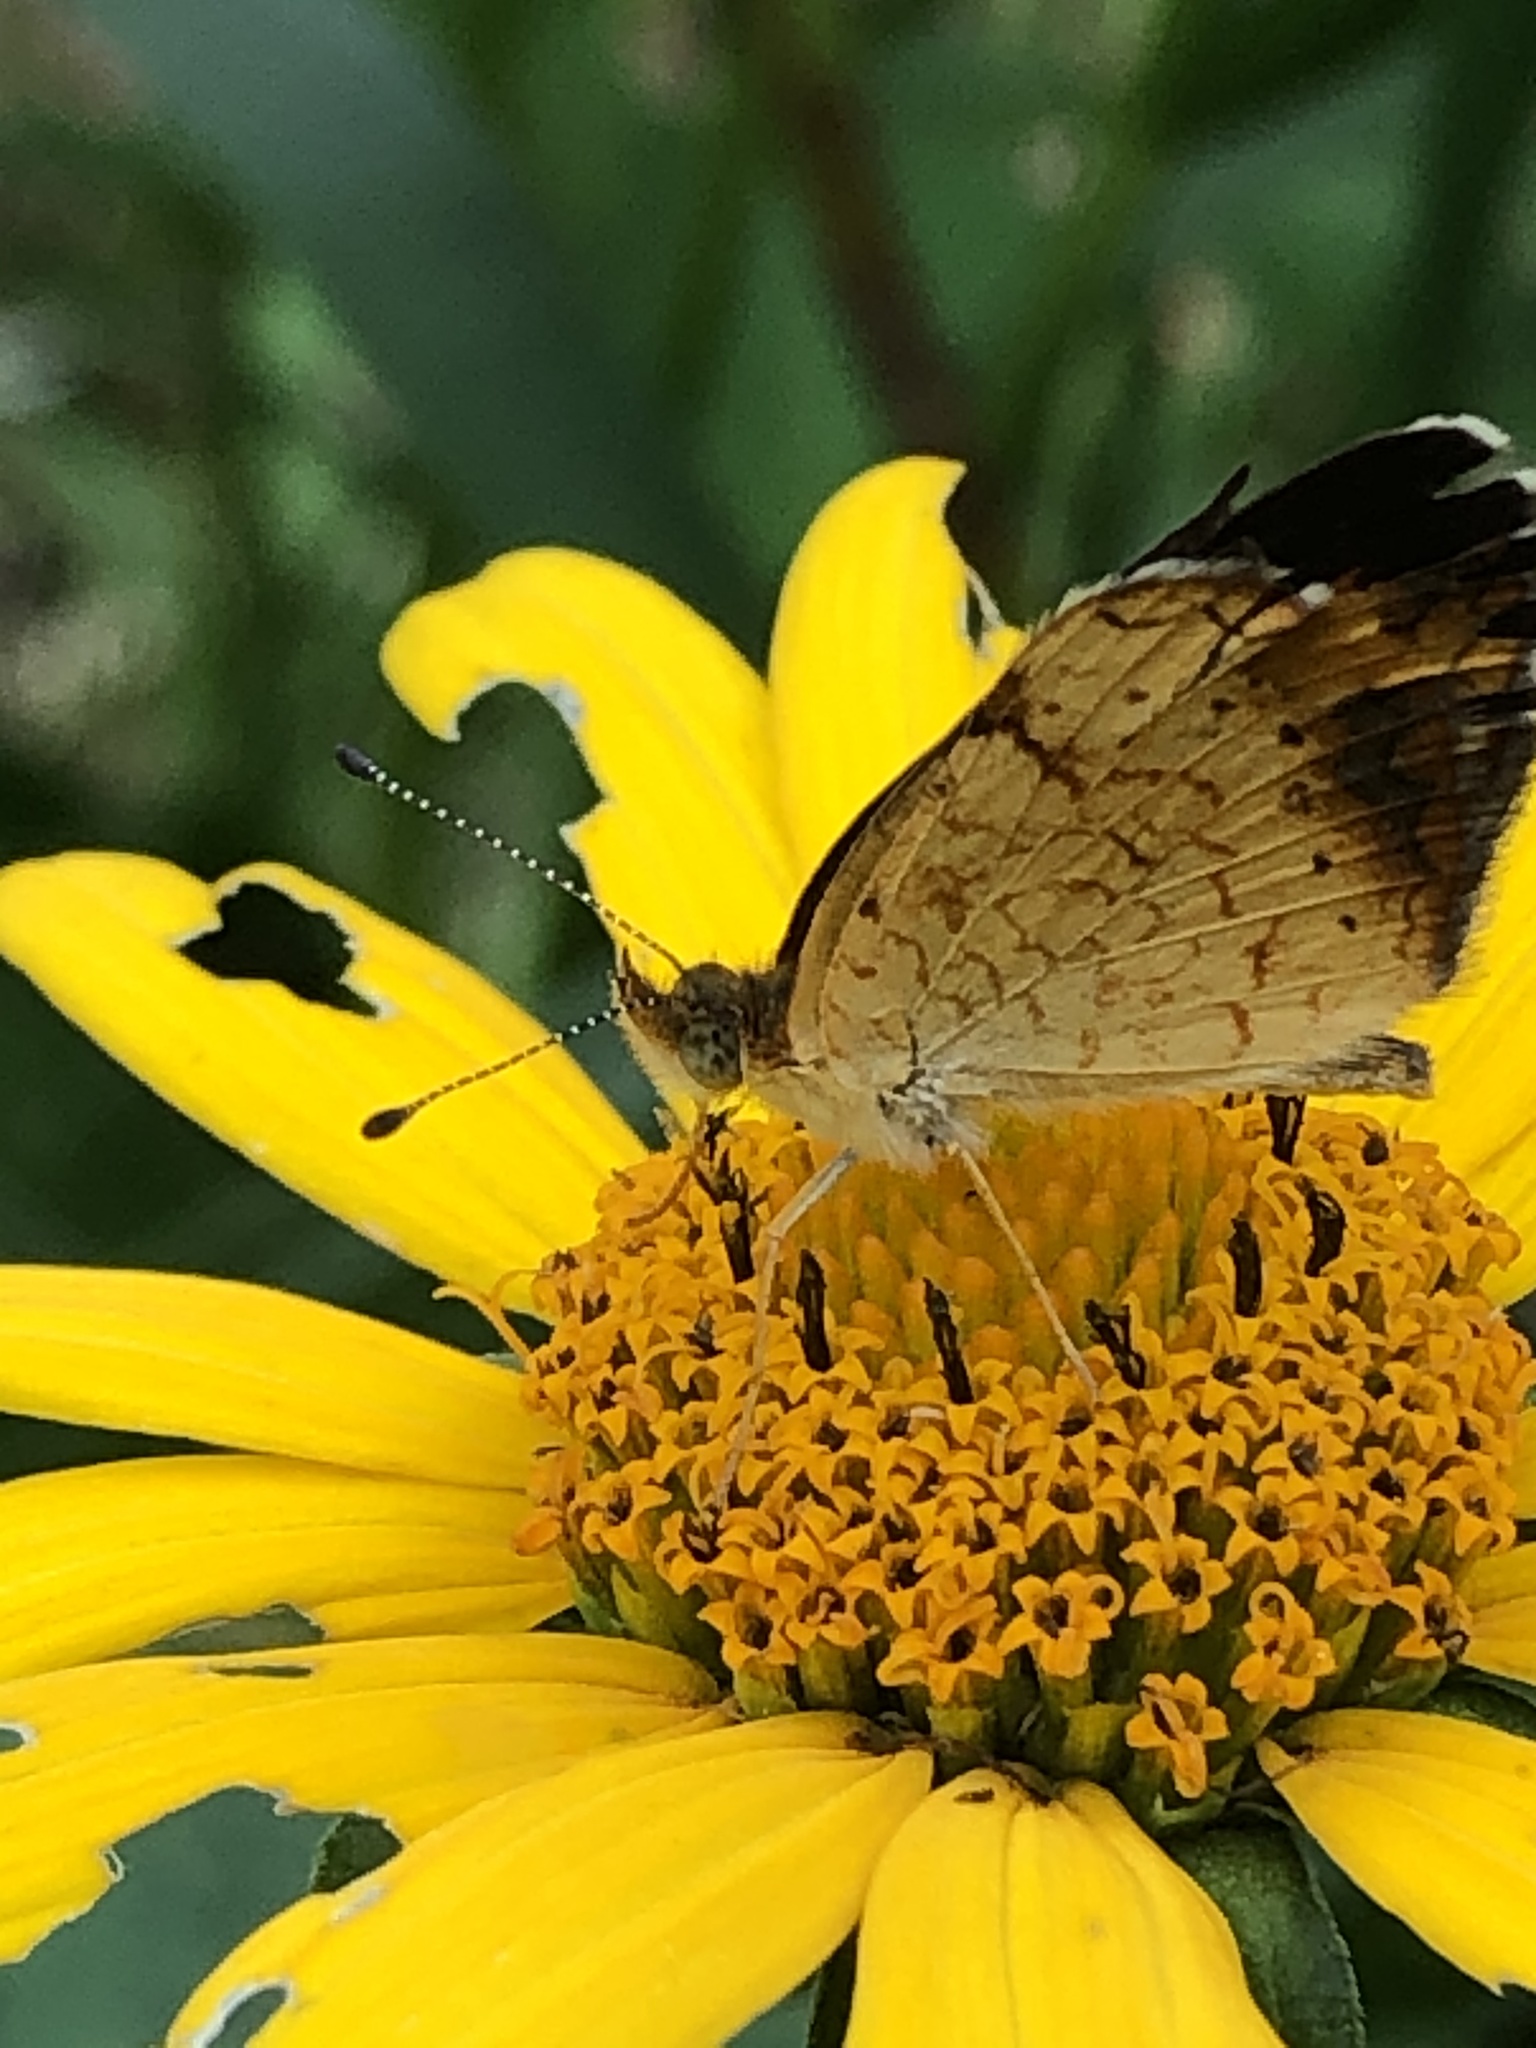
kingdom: Animalia
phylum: Arthropoda
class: Insecta
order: Lepidoptera
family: Nymphalidae
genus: Phyciodes
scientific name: Phyciodes tharos
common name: Pearl crescent
